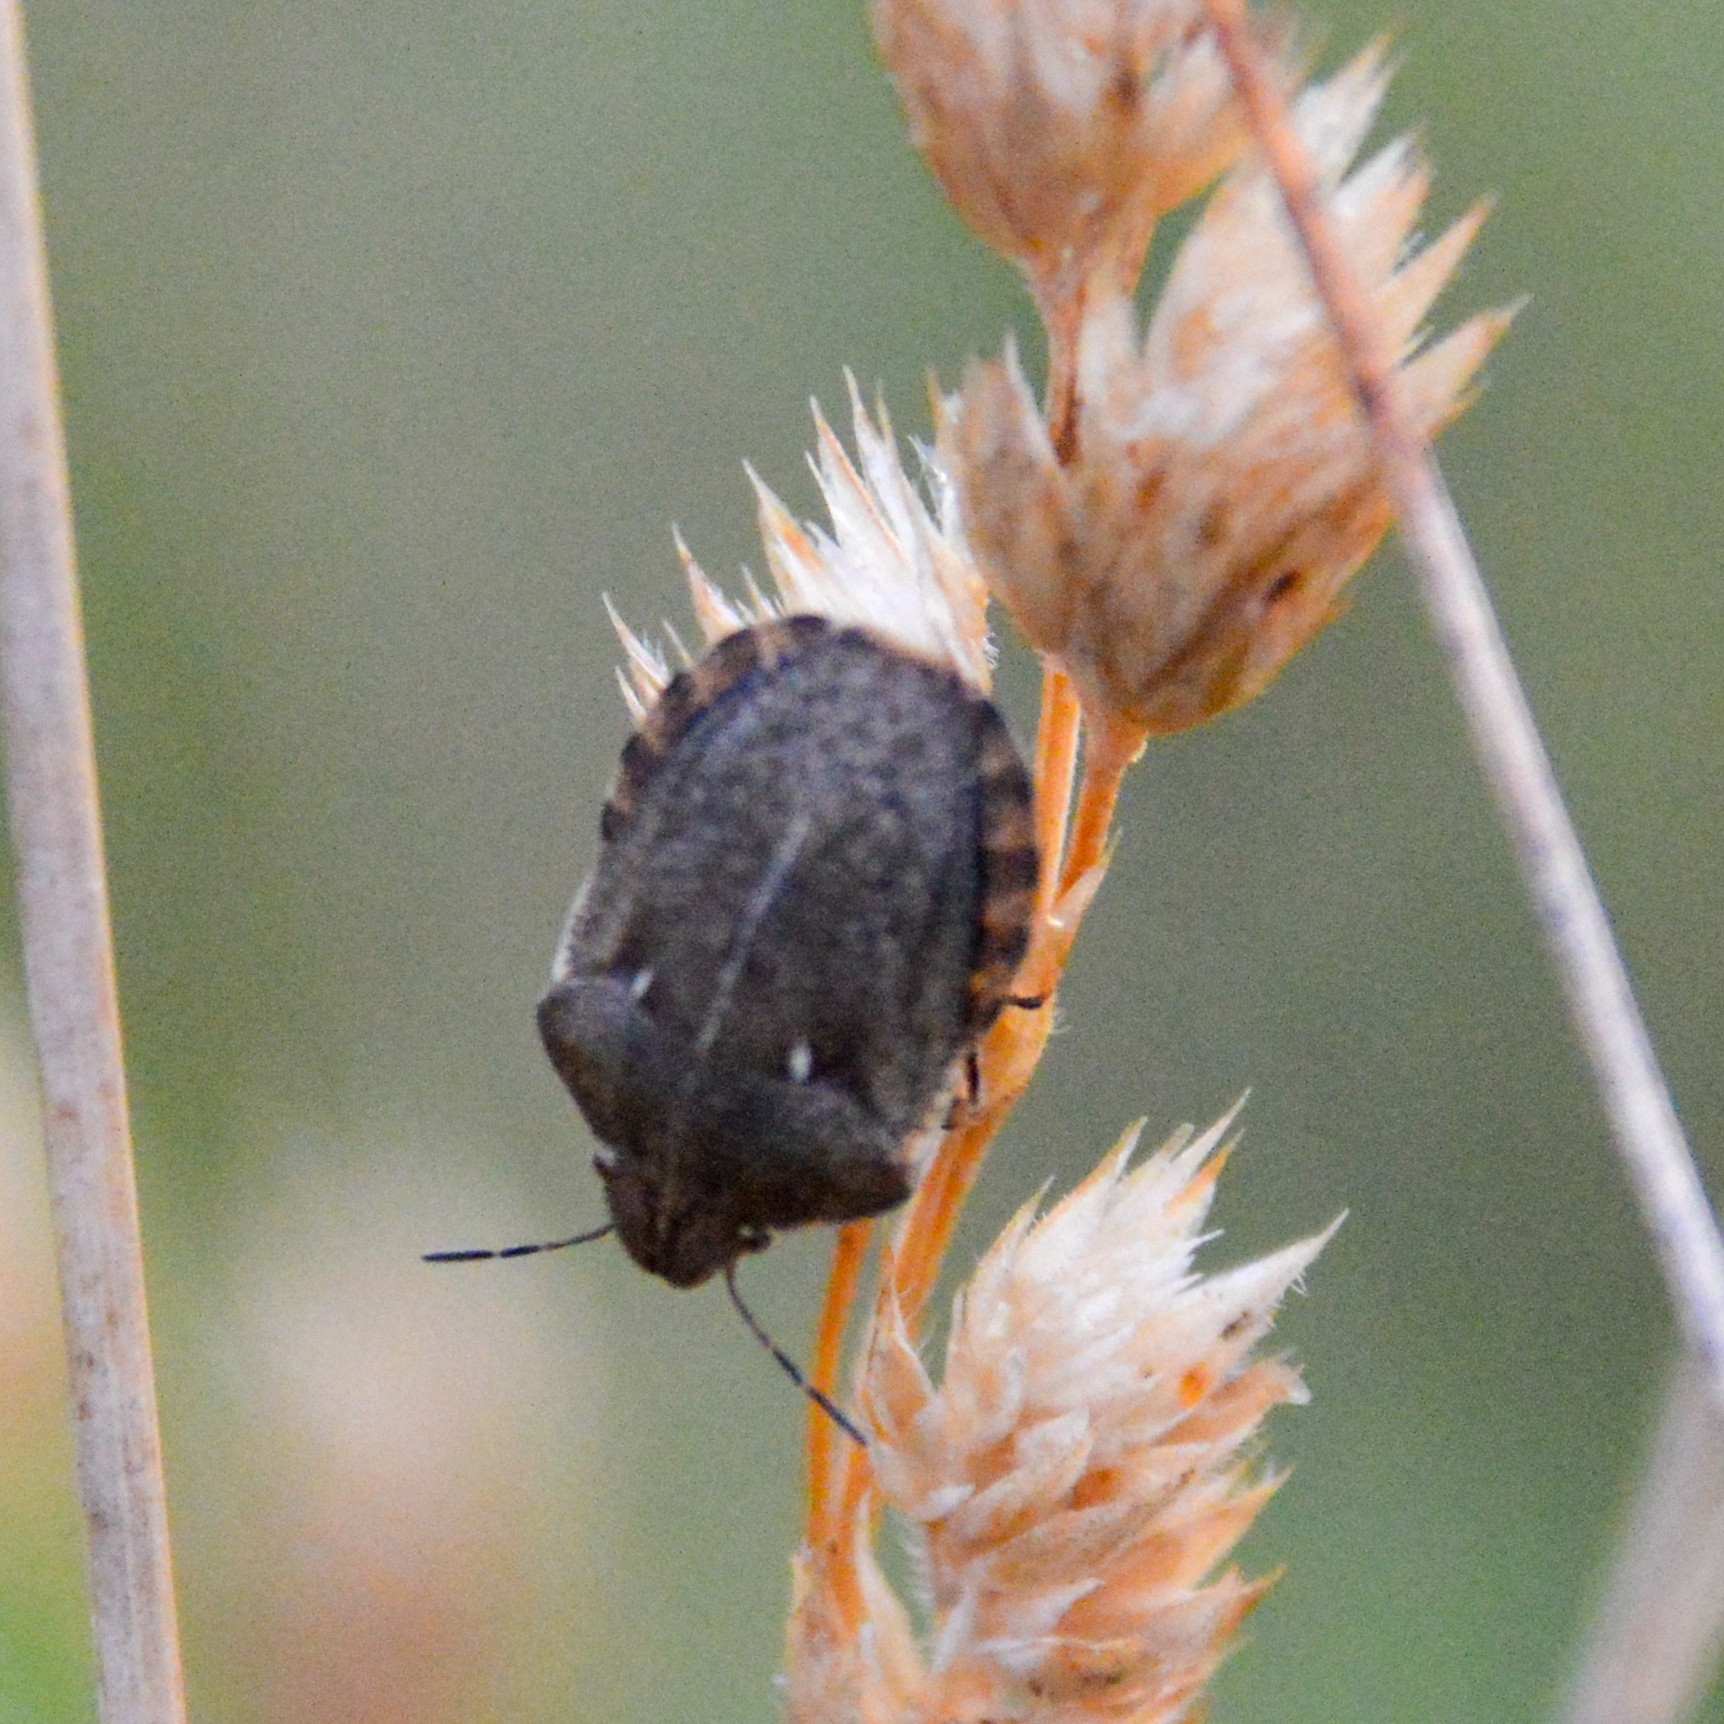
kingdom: Animalia
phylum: Arthropoda
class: Insecta
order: Hemiptera
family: Scutelleridae
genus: Eurygaster
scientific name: Eurygaster testudinaria
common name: Tortoise bug
